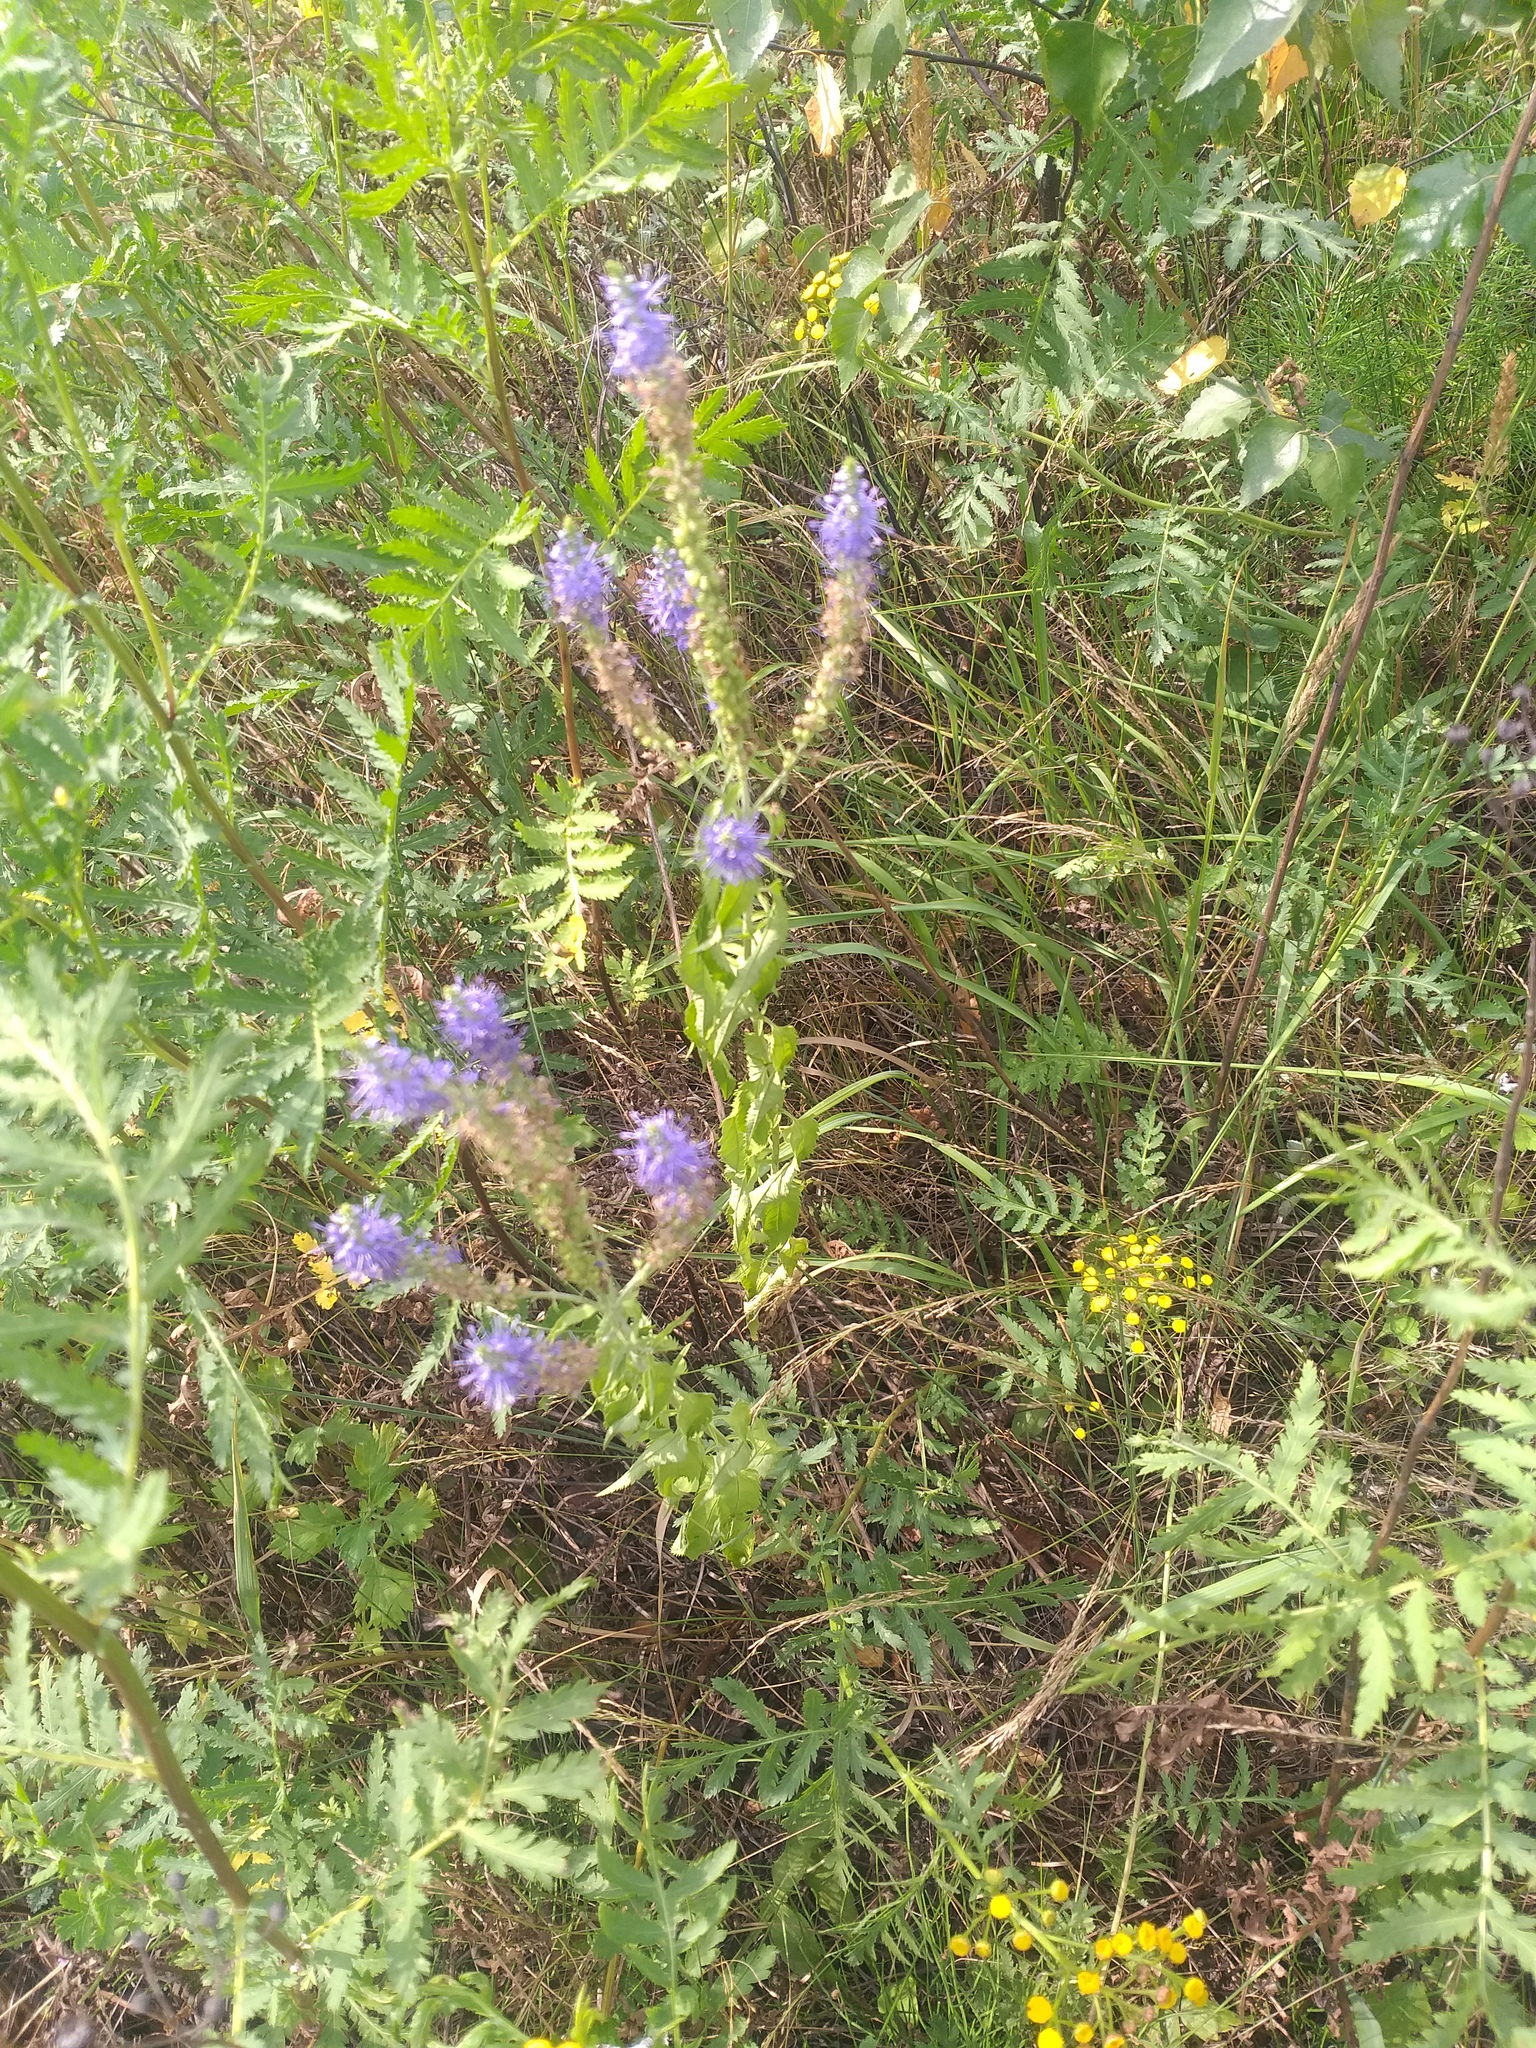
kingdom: Plantae
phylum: Tracheophyta
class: Magnoliopsida
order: Lamiales
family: Plantaginaceae
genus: Veronica
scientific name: Veronica longifolia
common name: Garden speedwell
